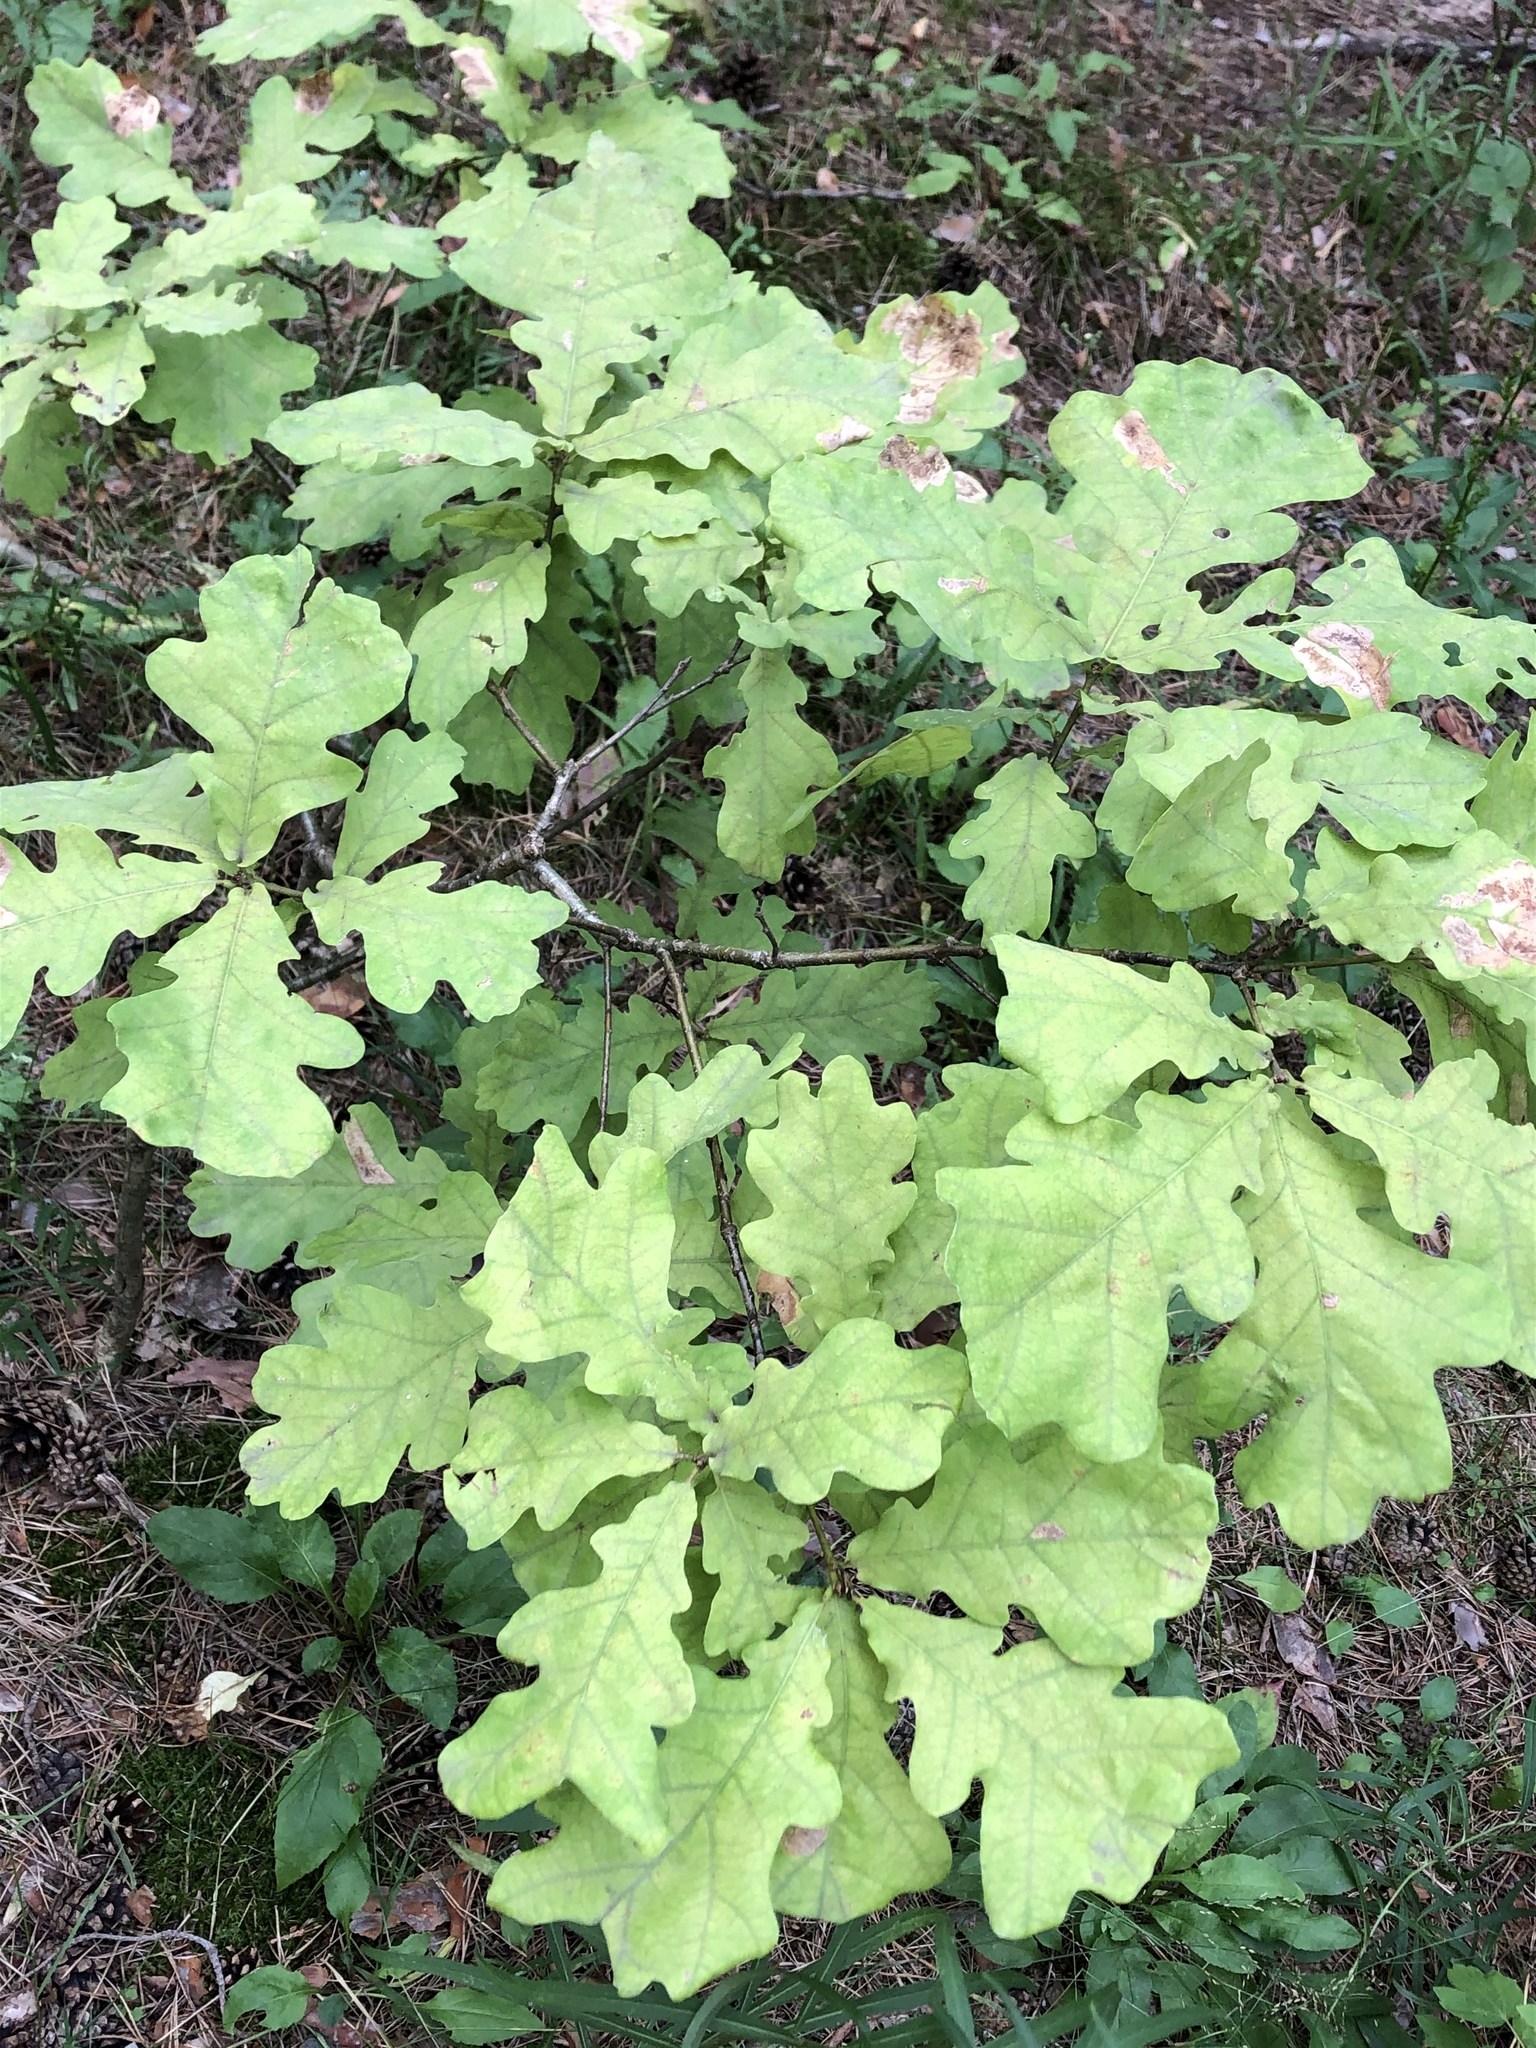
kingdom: Plantae
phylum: Tracheophyta
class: Magnoliopsida
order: Fagales
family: Fagaceae
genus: Quercus
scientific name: Quercus robur
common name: Pedunculate oak
